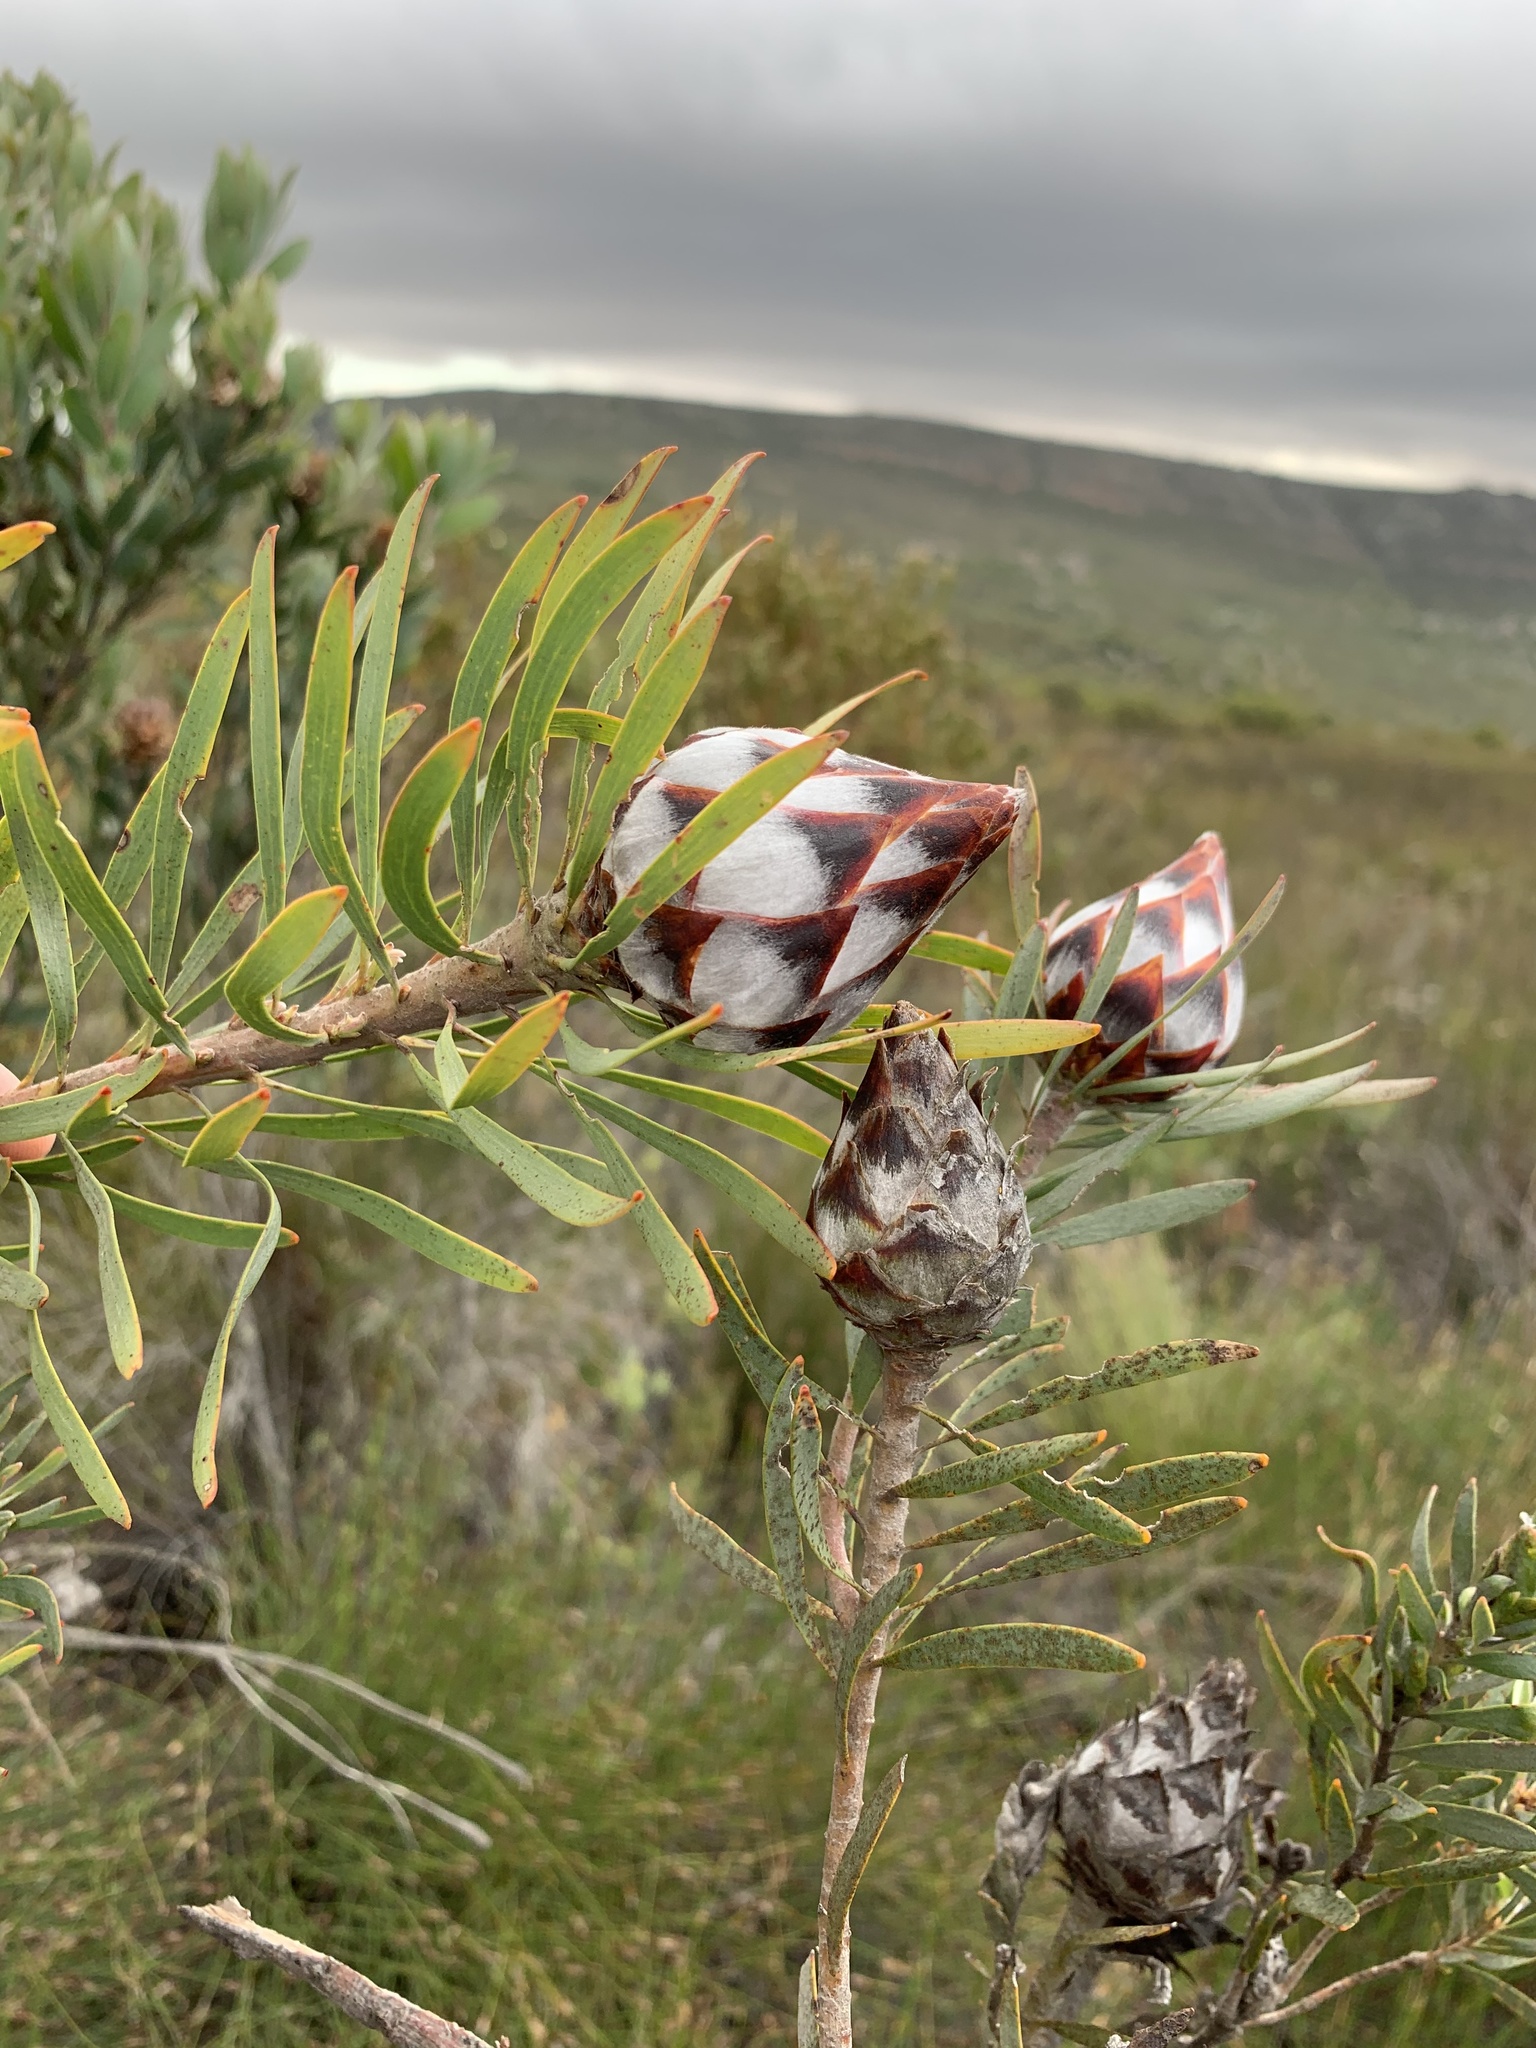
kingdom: Plantae
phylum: Tracheophyta
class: Magnoliopsida
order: Proteales
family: Proteaceae
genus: Leucadendron
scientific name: Leucadendron rubrum
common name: Spinning top
